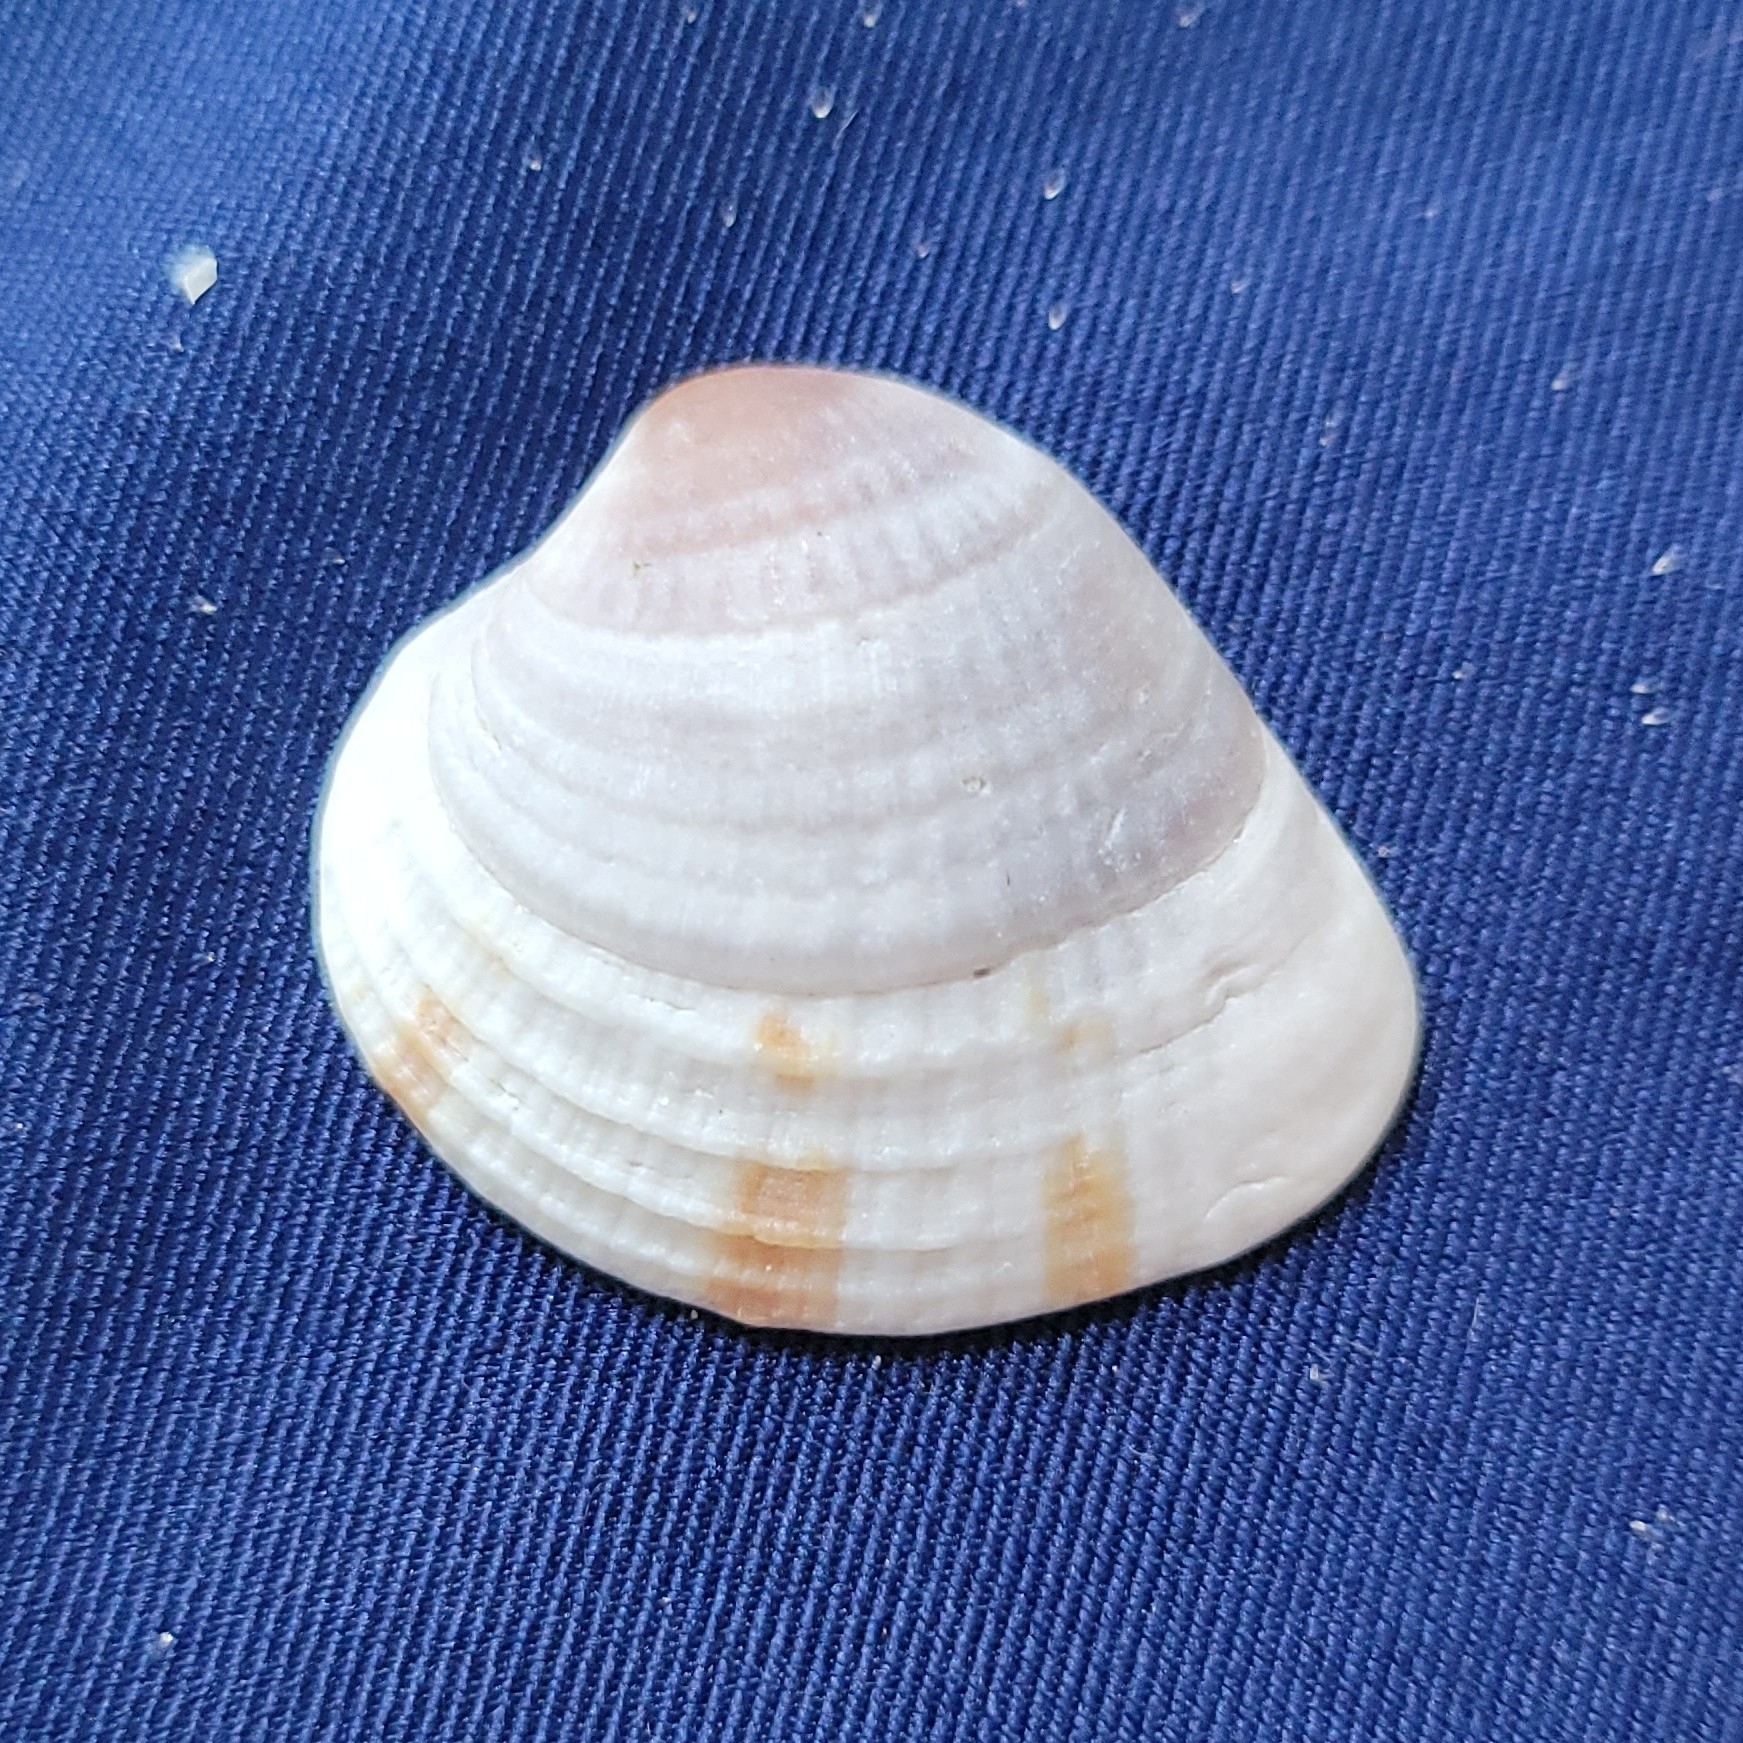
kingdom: Animalia
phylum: Mollusca
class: Bivalvia
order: Venerida
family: Veneridae
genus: Chione
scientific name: Chione elevata
